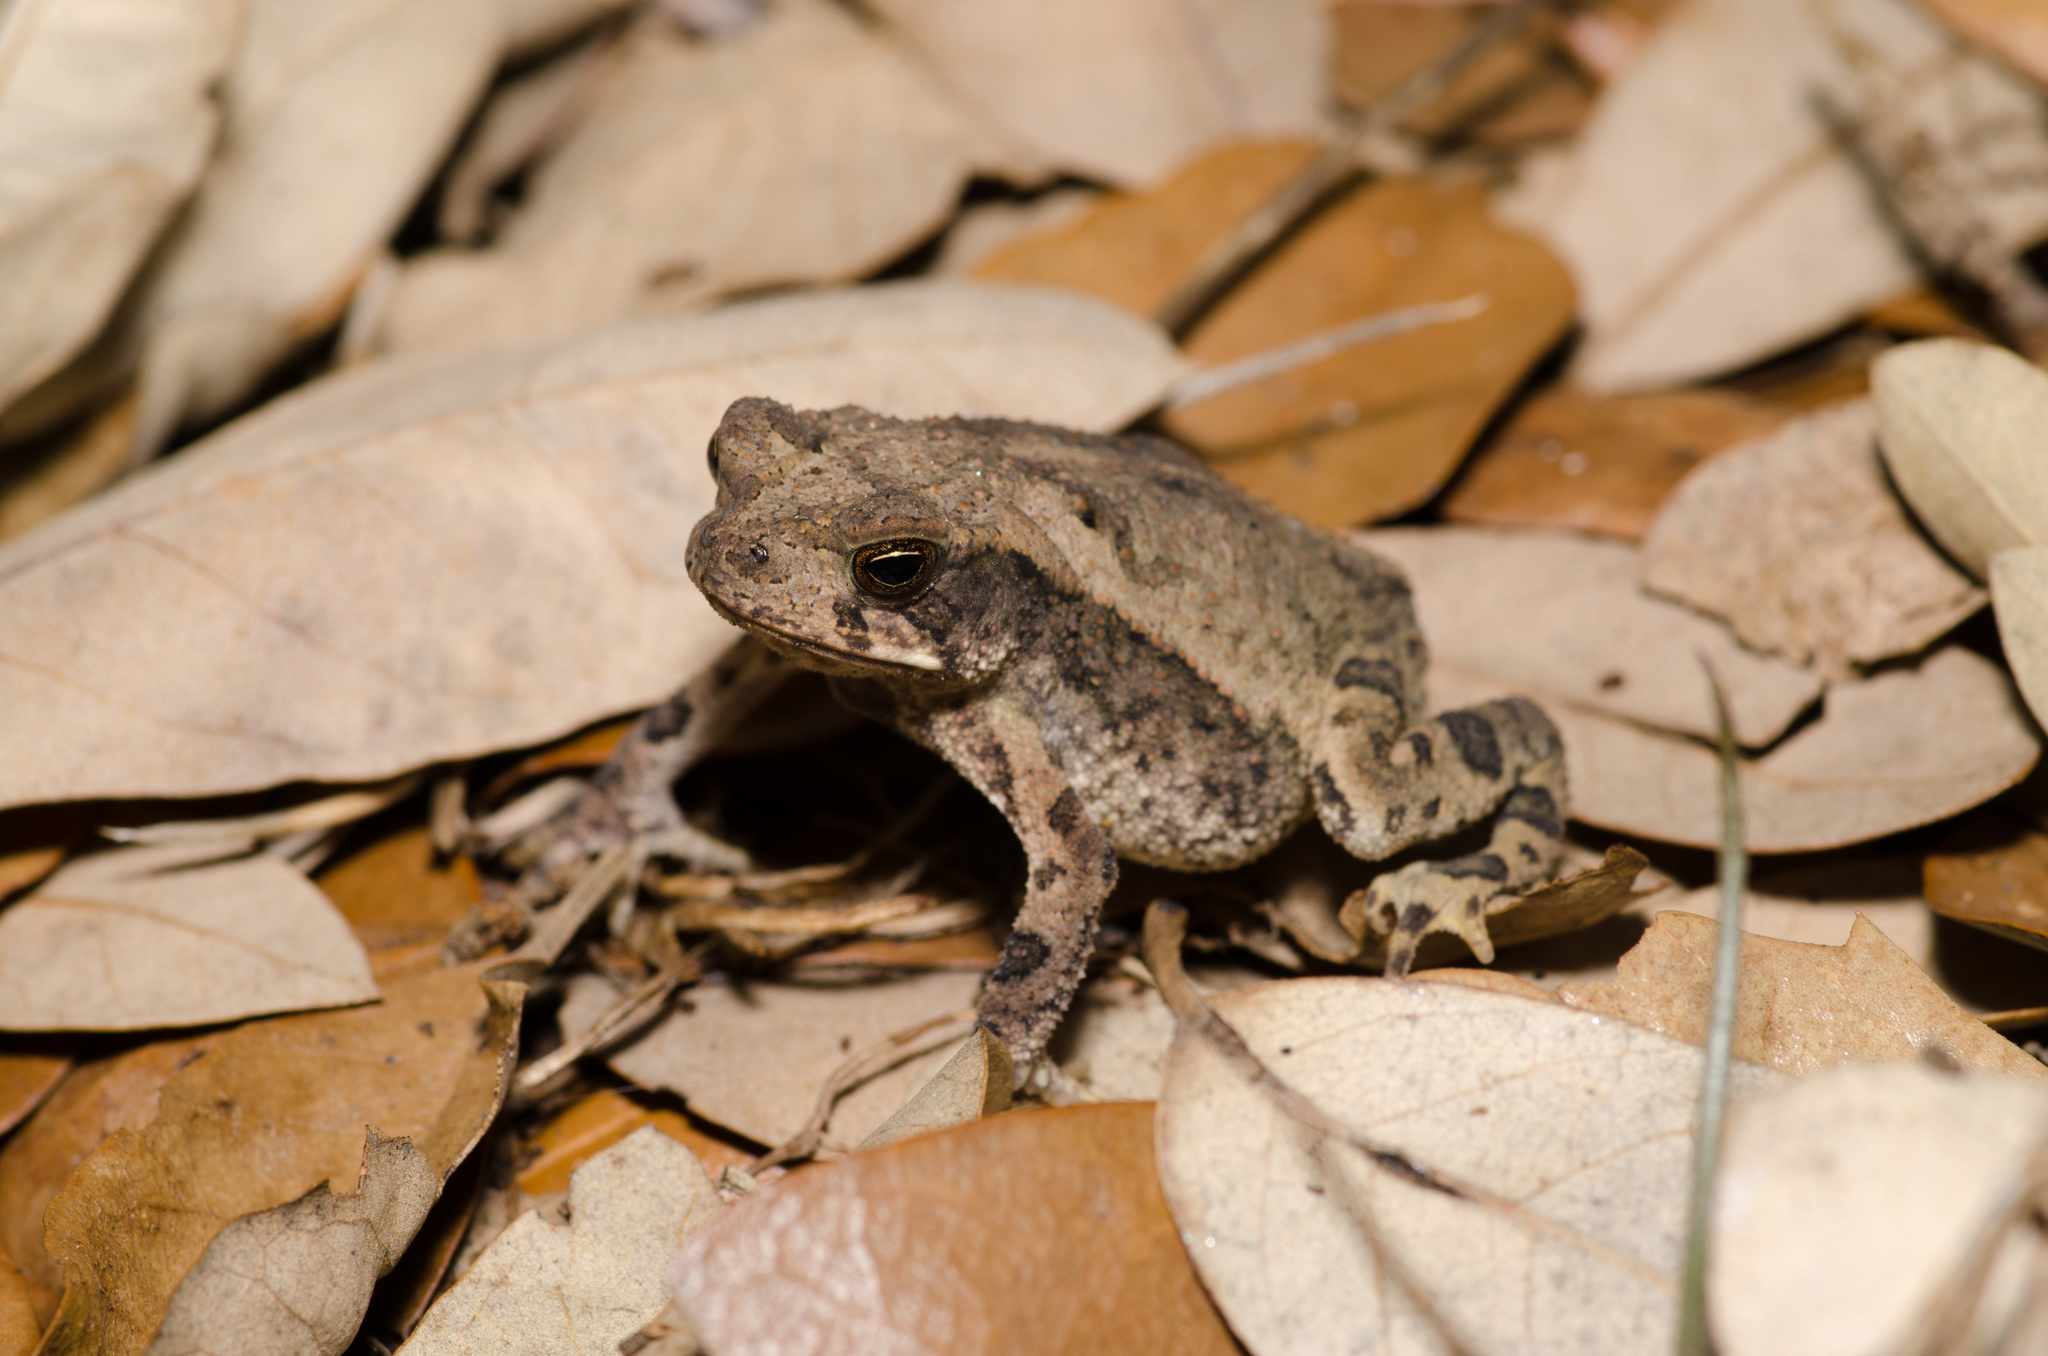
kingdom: Animalia
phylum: Chordata
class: Amphibia
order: Anura
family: Bufonidae
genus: Incilius
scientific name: Incilius nebulifer
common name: Gulf coast toad
